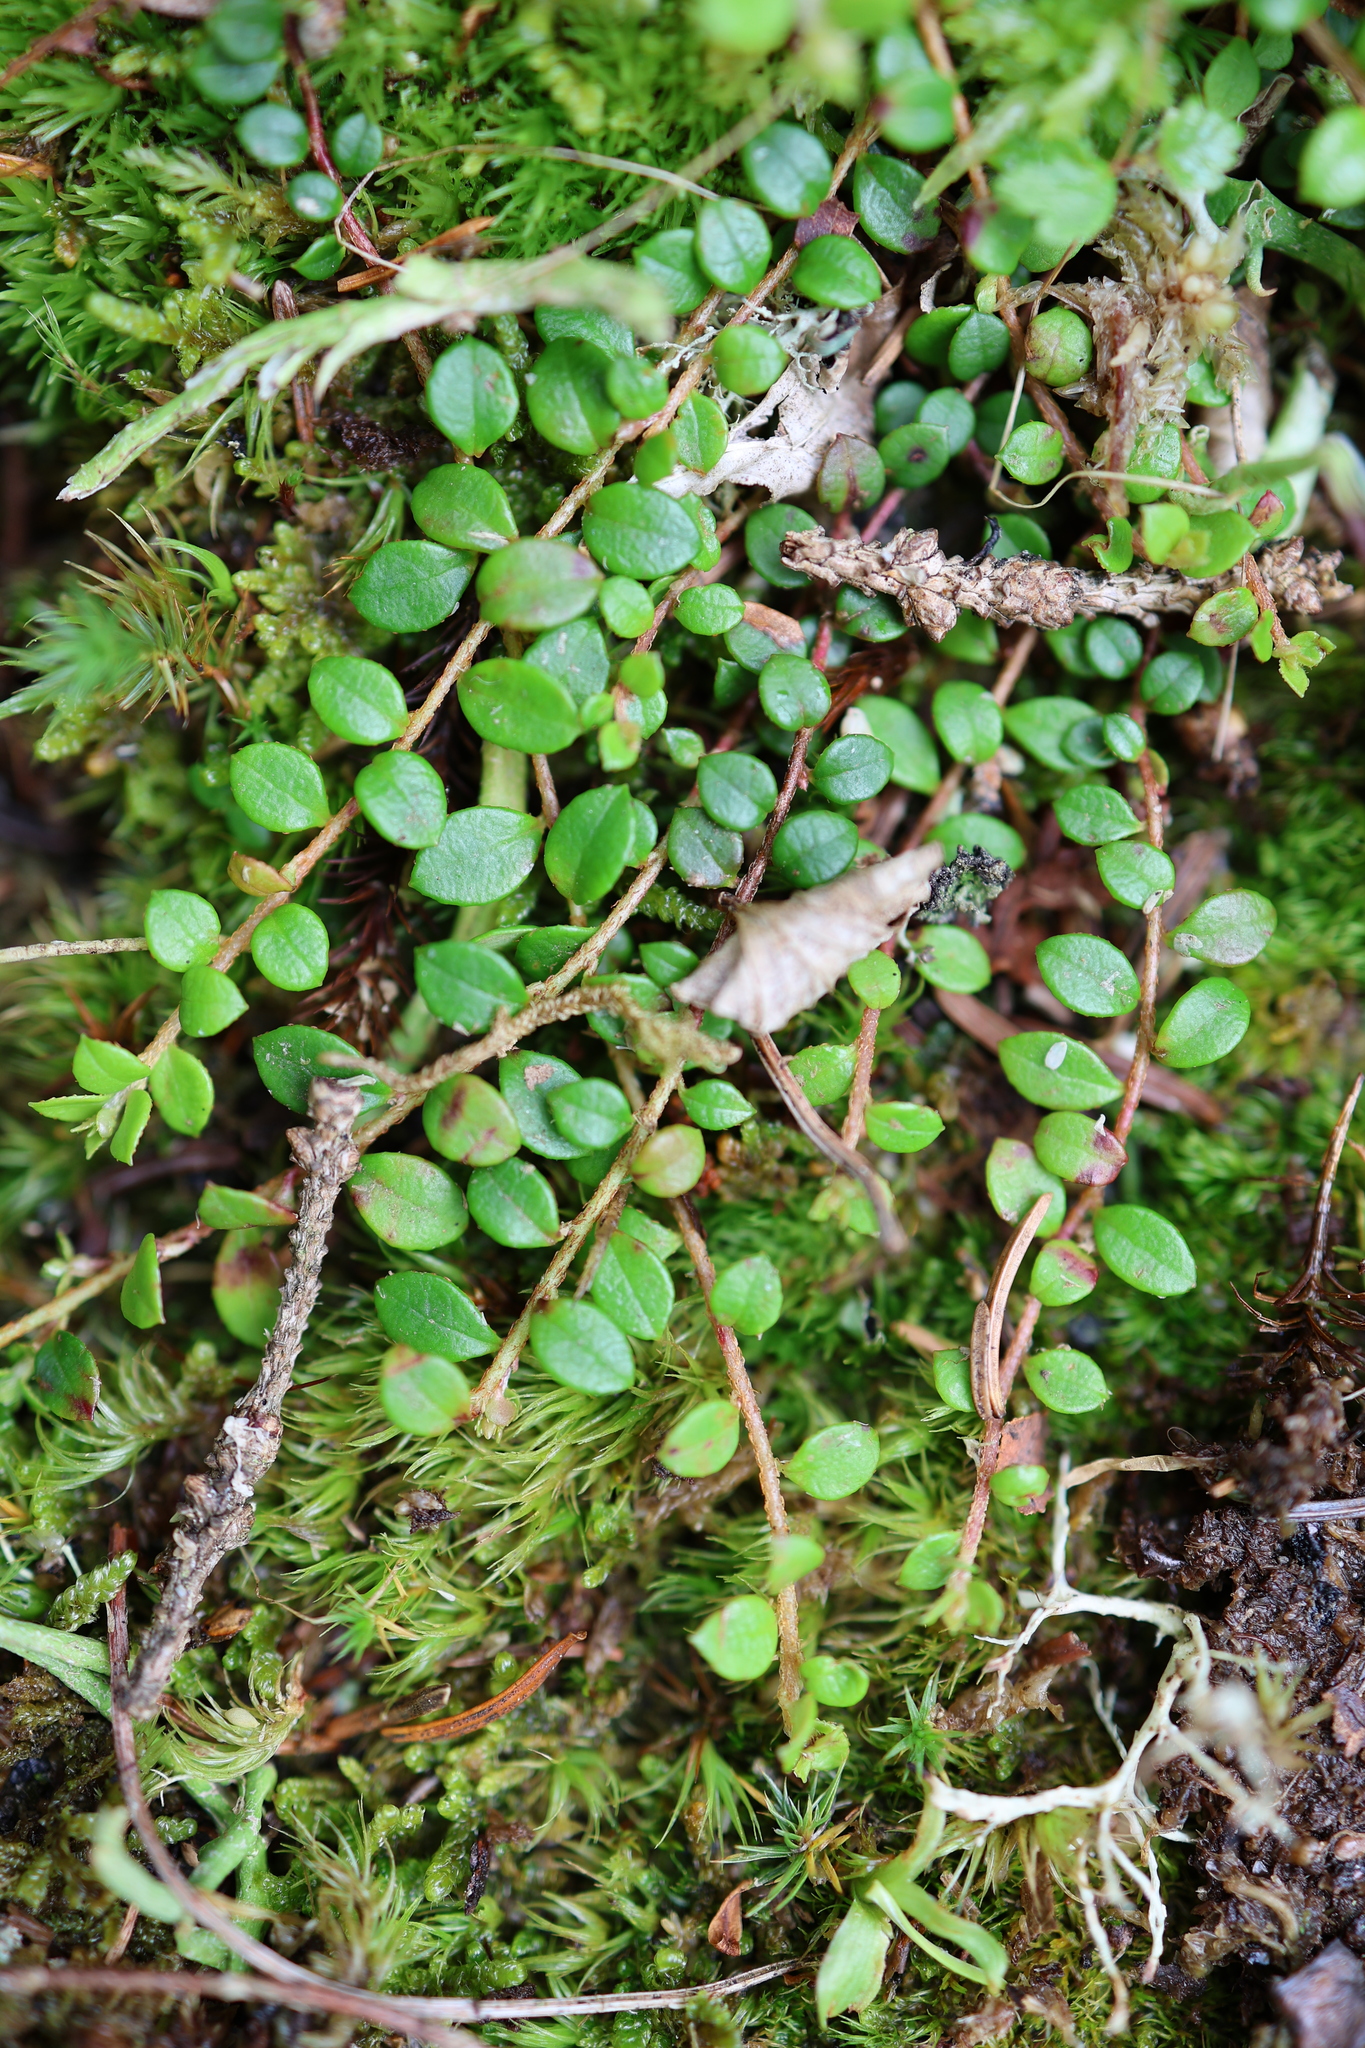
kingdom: Plantae
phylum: Tracheophyta
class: Magnoliopsida
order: Ericales
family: Ericaceae
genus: Gaultheria
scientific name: Gaultheria hispidula
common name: Cancer wintergreen
